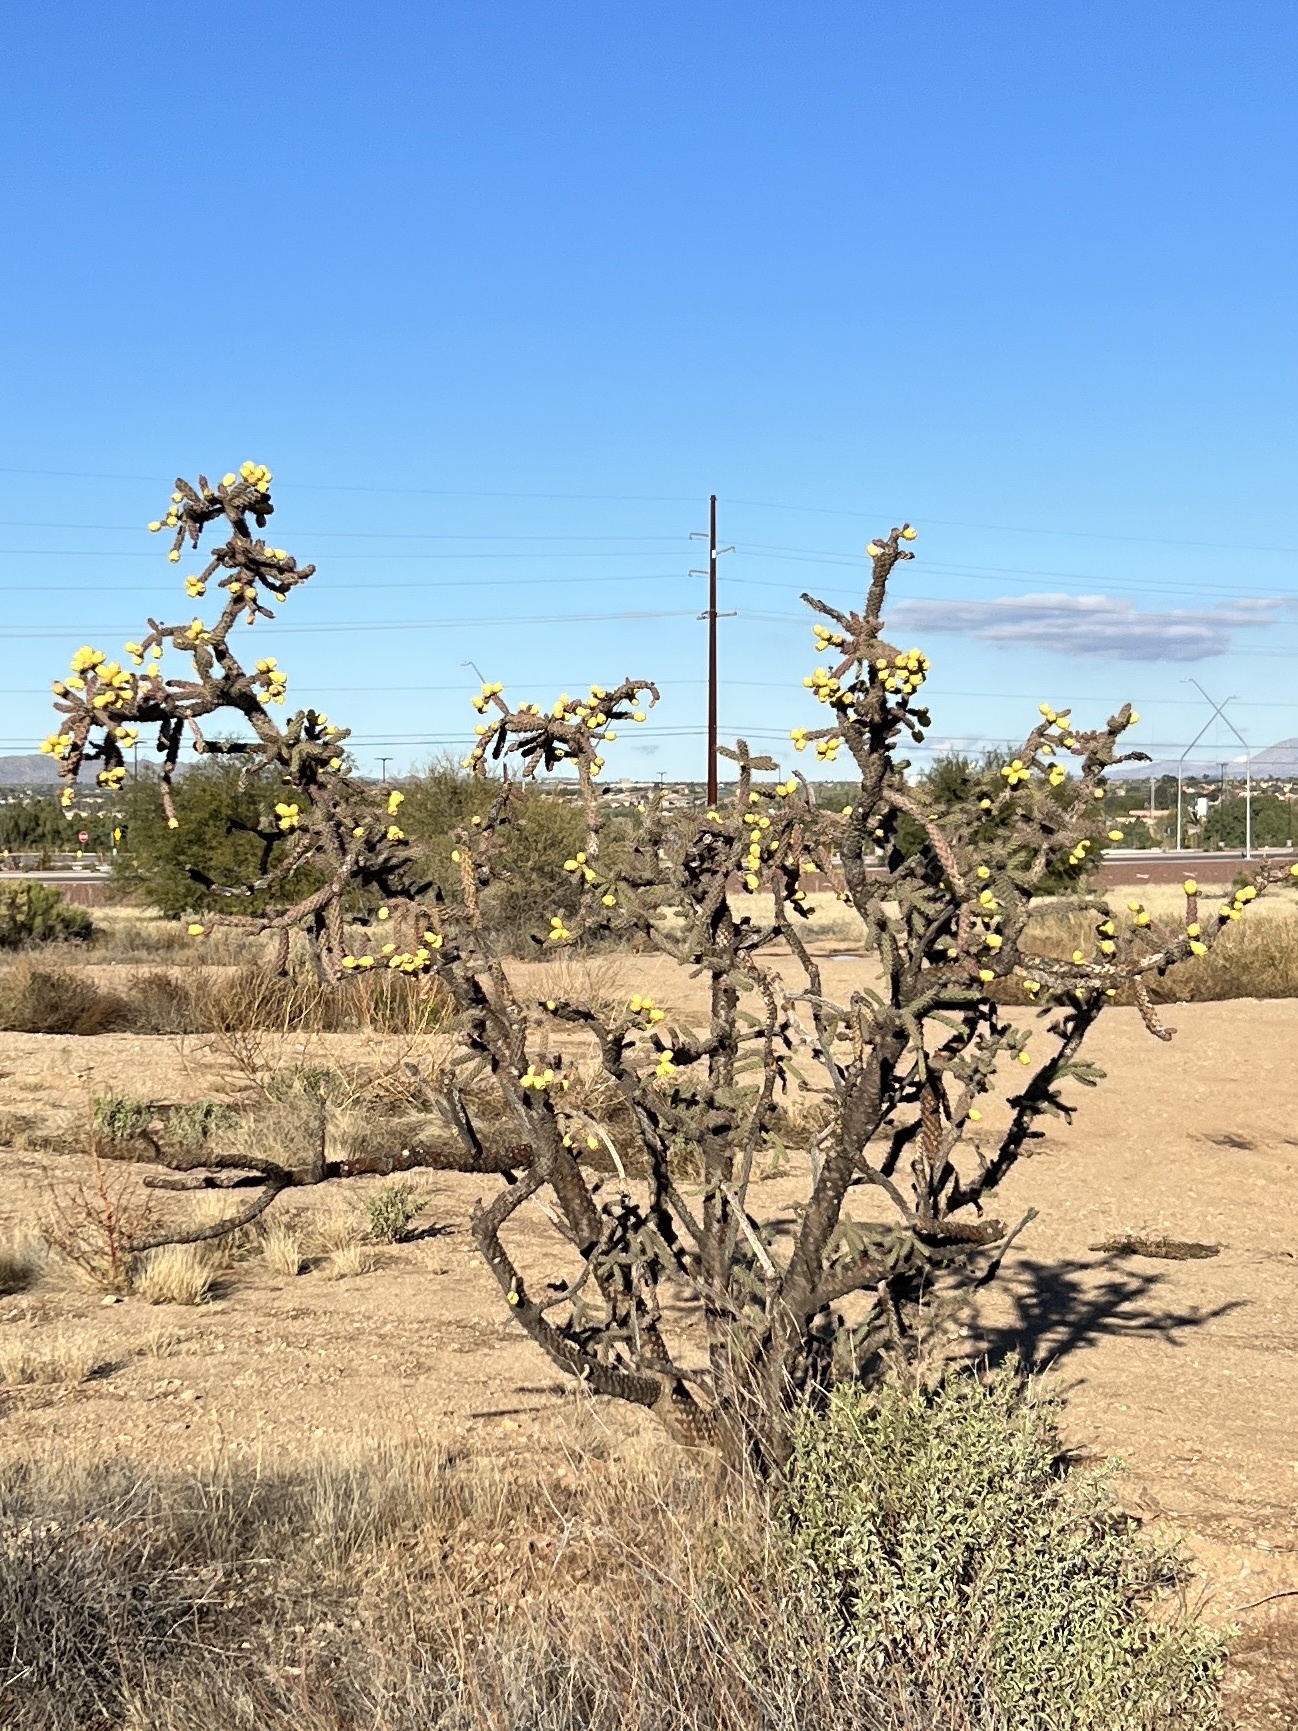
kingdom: Plantae
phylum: Tracheophyta
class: Magnoliopsida
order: Caryophyllales
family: Cactaceae
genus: Cylindropuntia
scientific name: Cylindropuntia imbricata
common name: Candelabrum cactus
